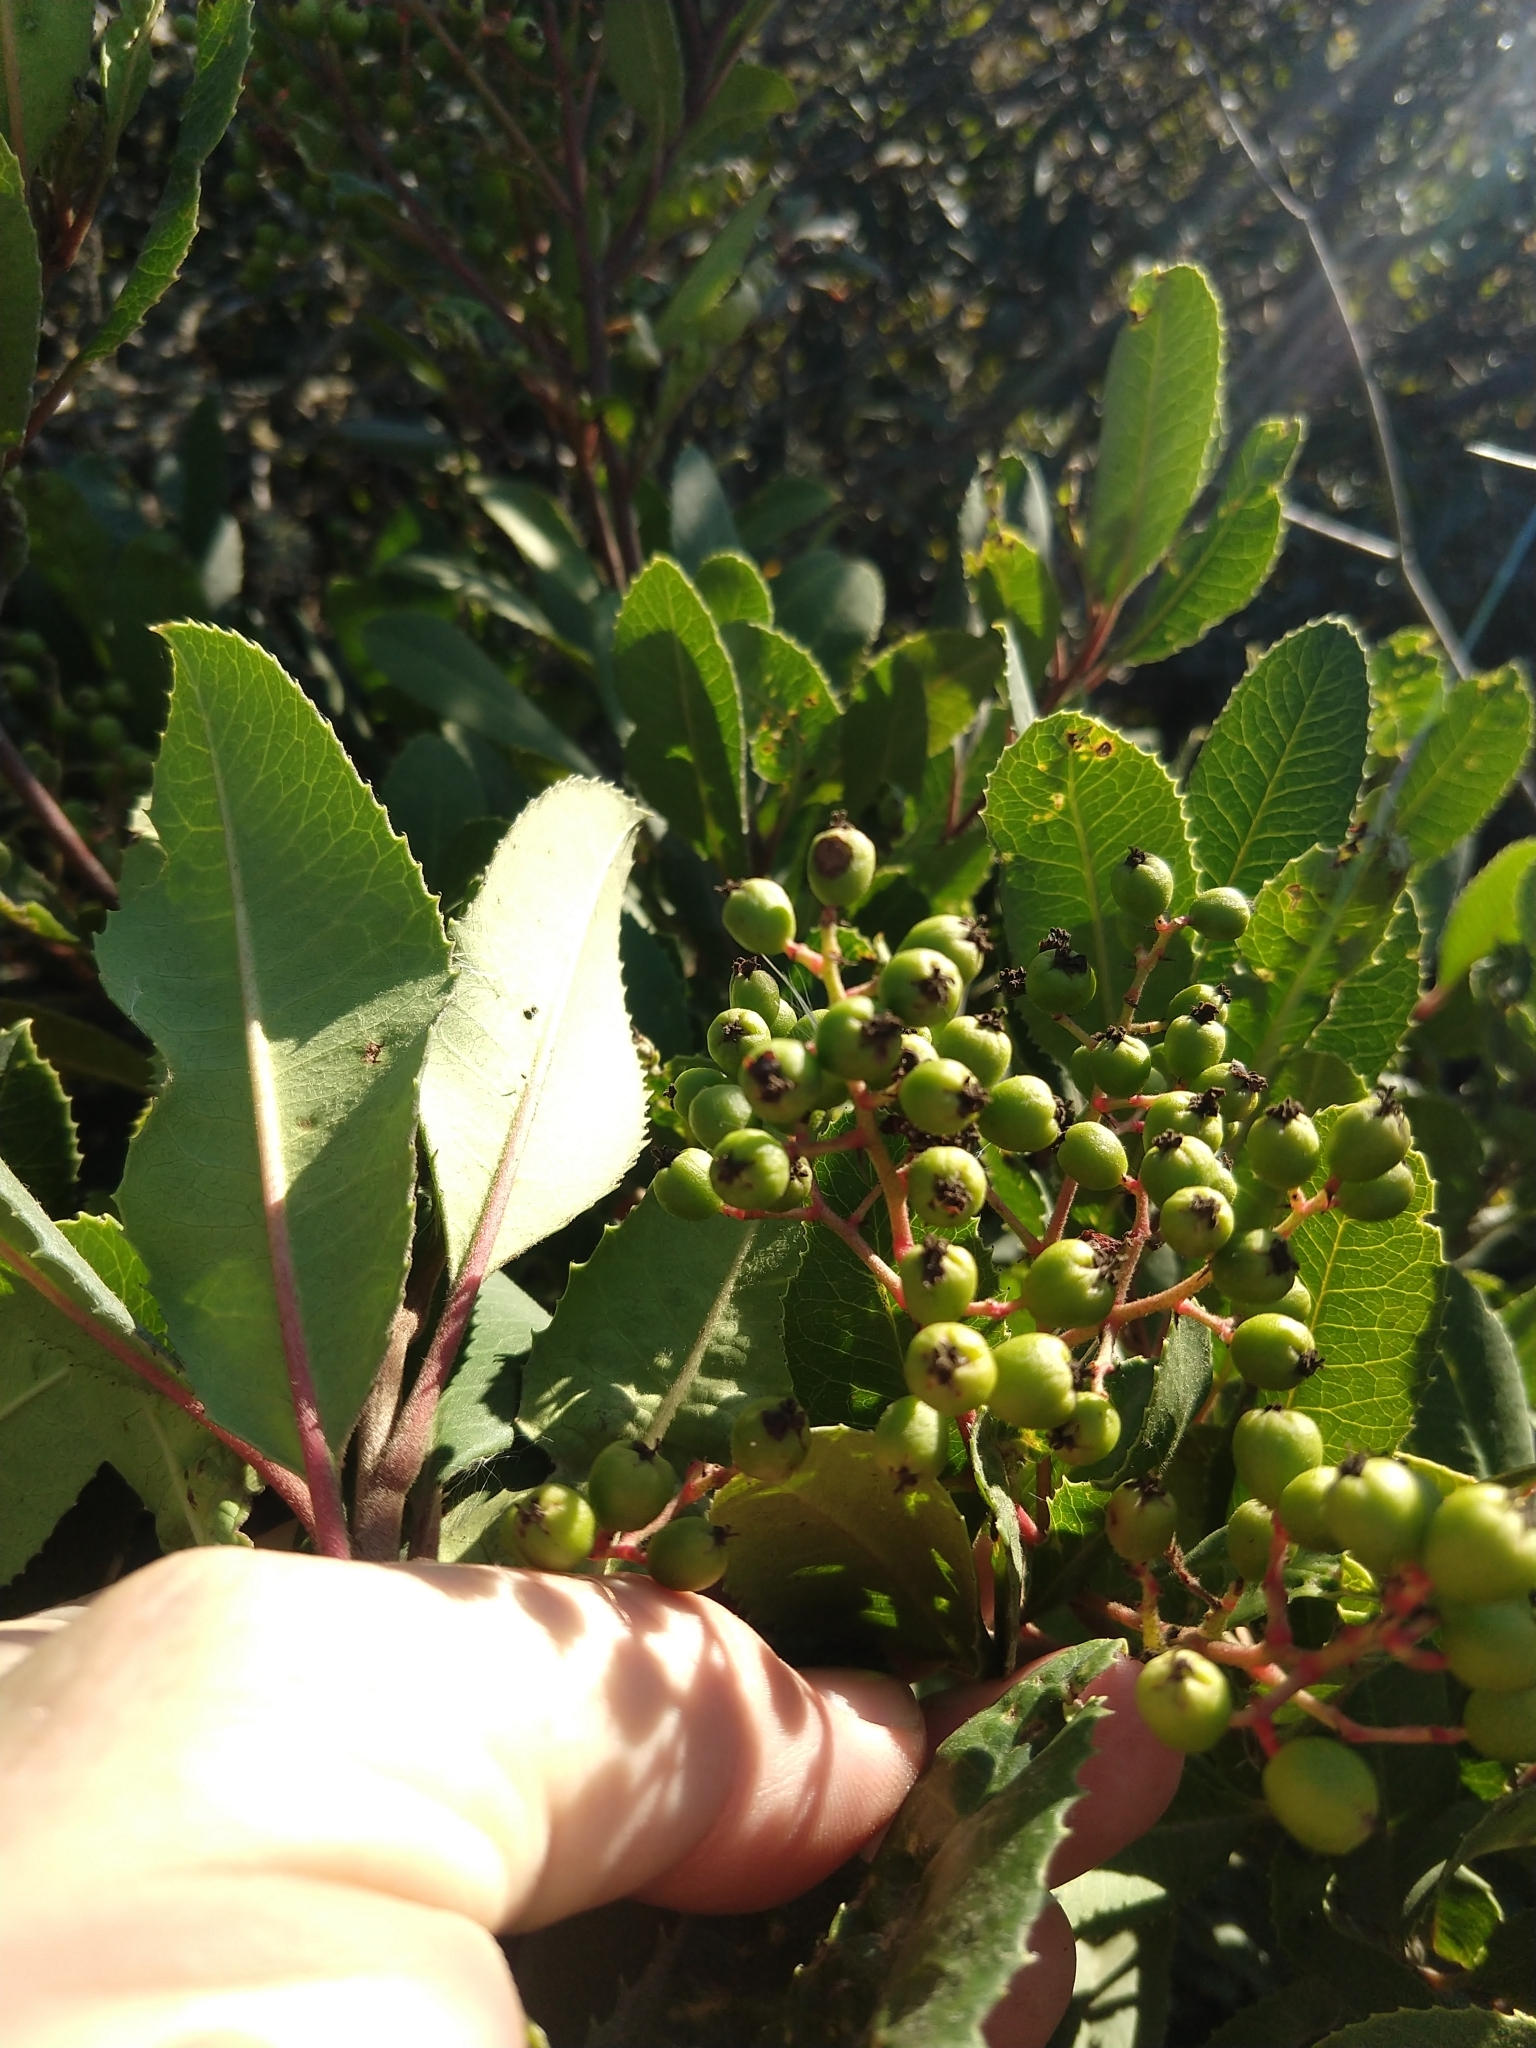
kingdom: Plantae
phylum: Tracheophyta
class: Magnoliopsida
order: Rosales
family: Rosaceae
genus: Heteromeles
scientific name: Heteromeles arbutifolia
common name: California-holly
